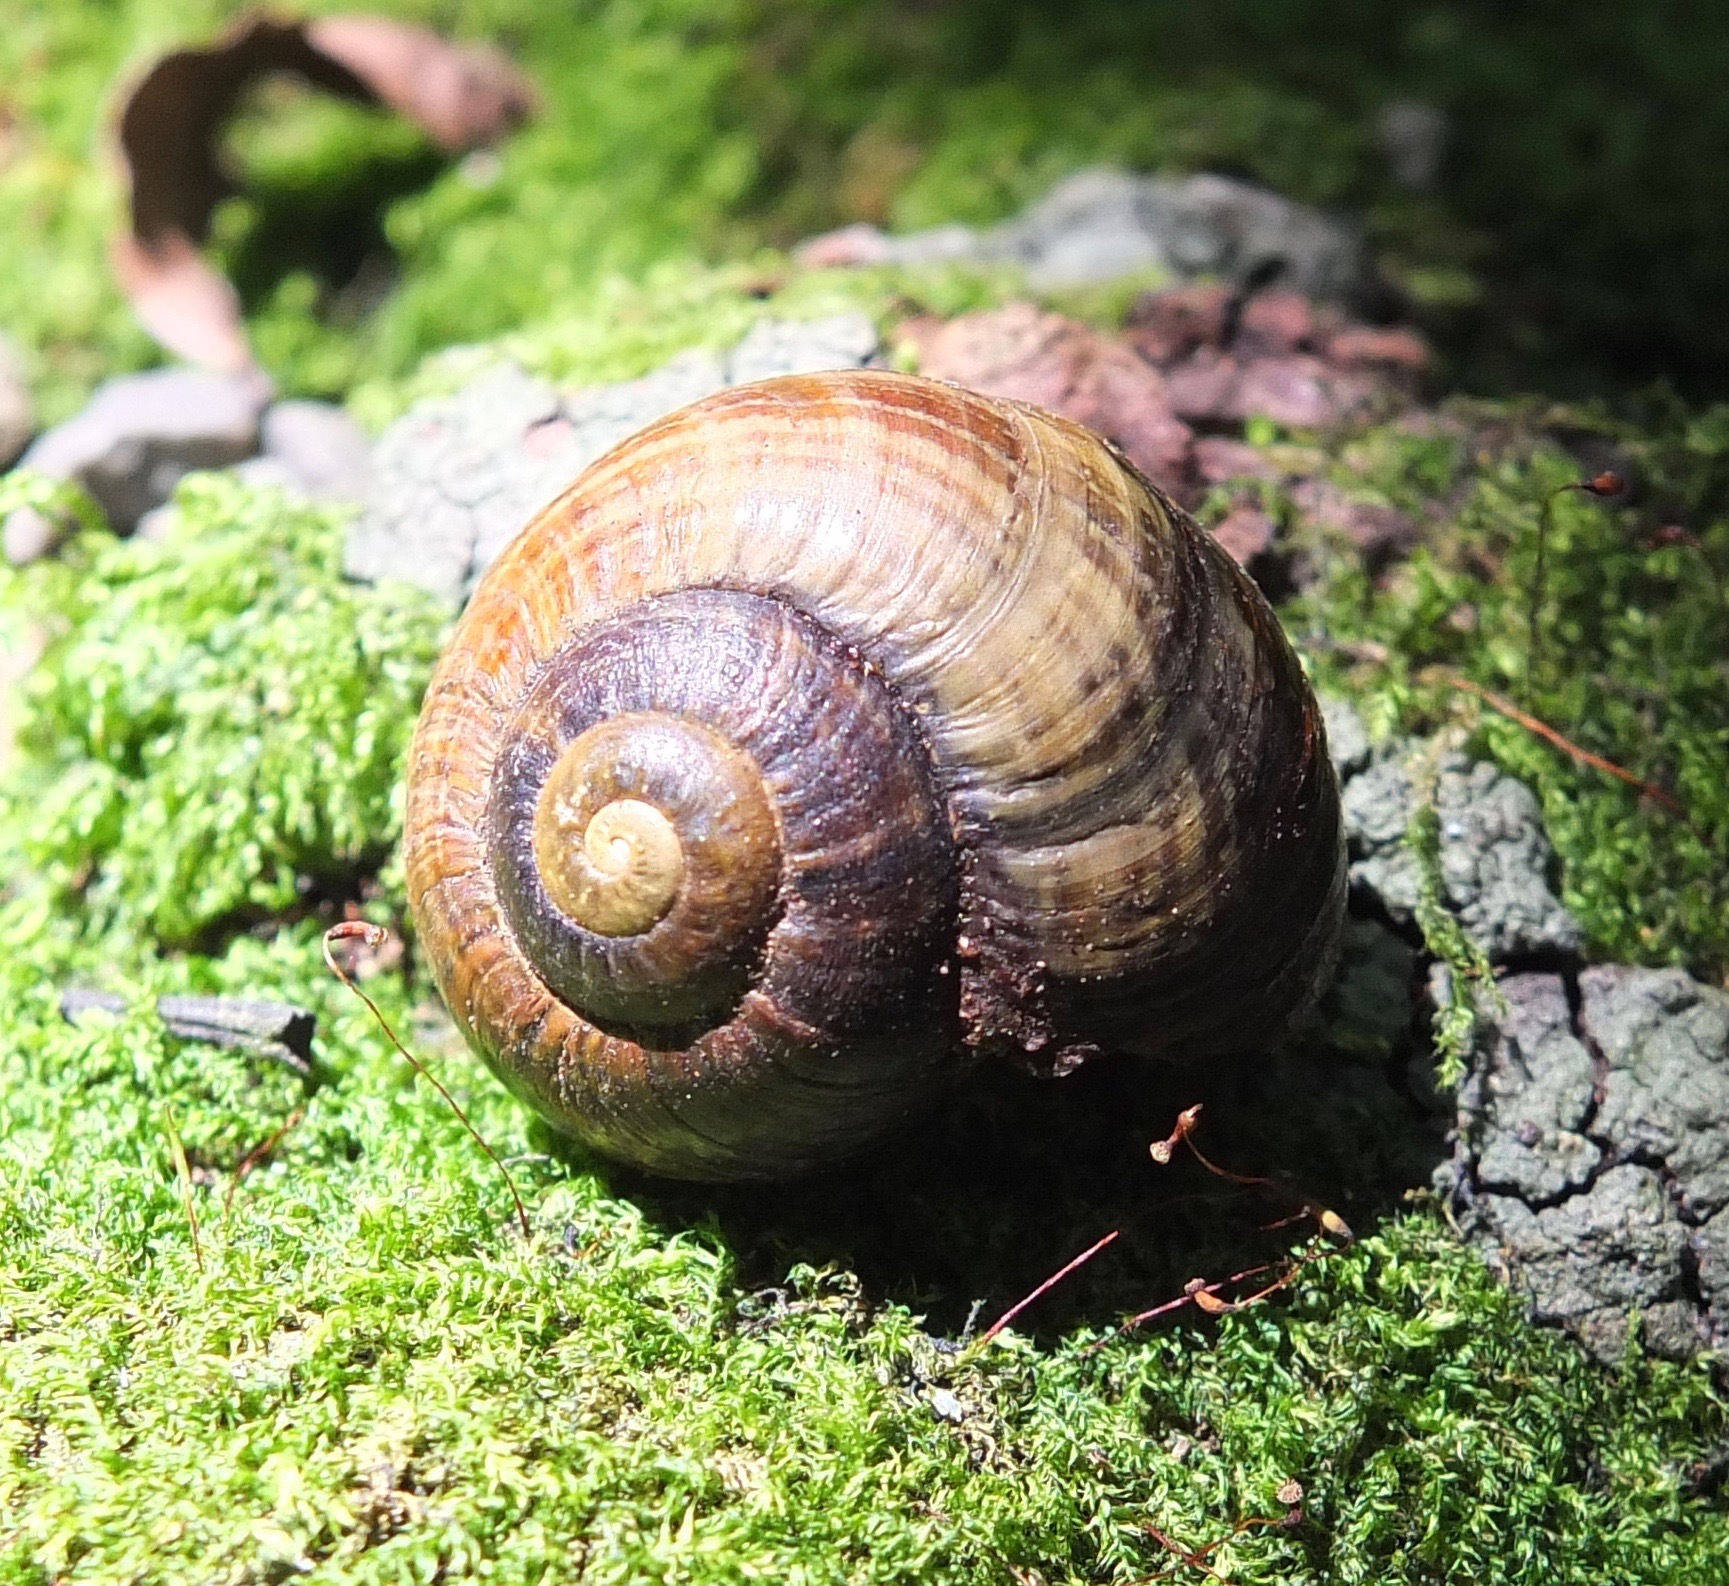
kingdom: Animalia
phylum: Mollusca
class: Gastropoda
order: Stylommatophora
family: Rhytididae
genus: Powelliphanta
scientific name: Powelliphanta traversi
